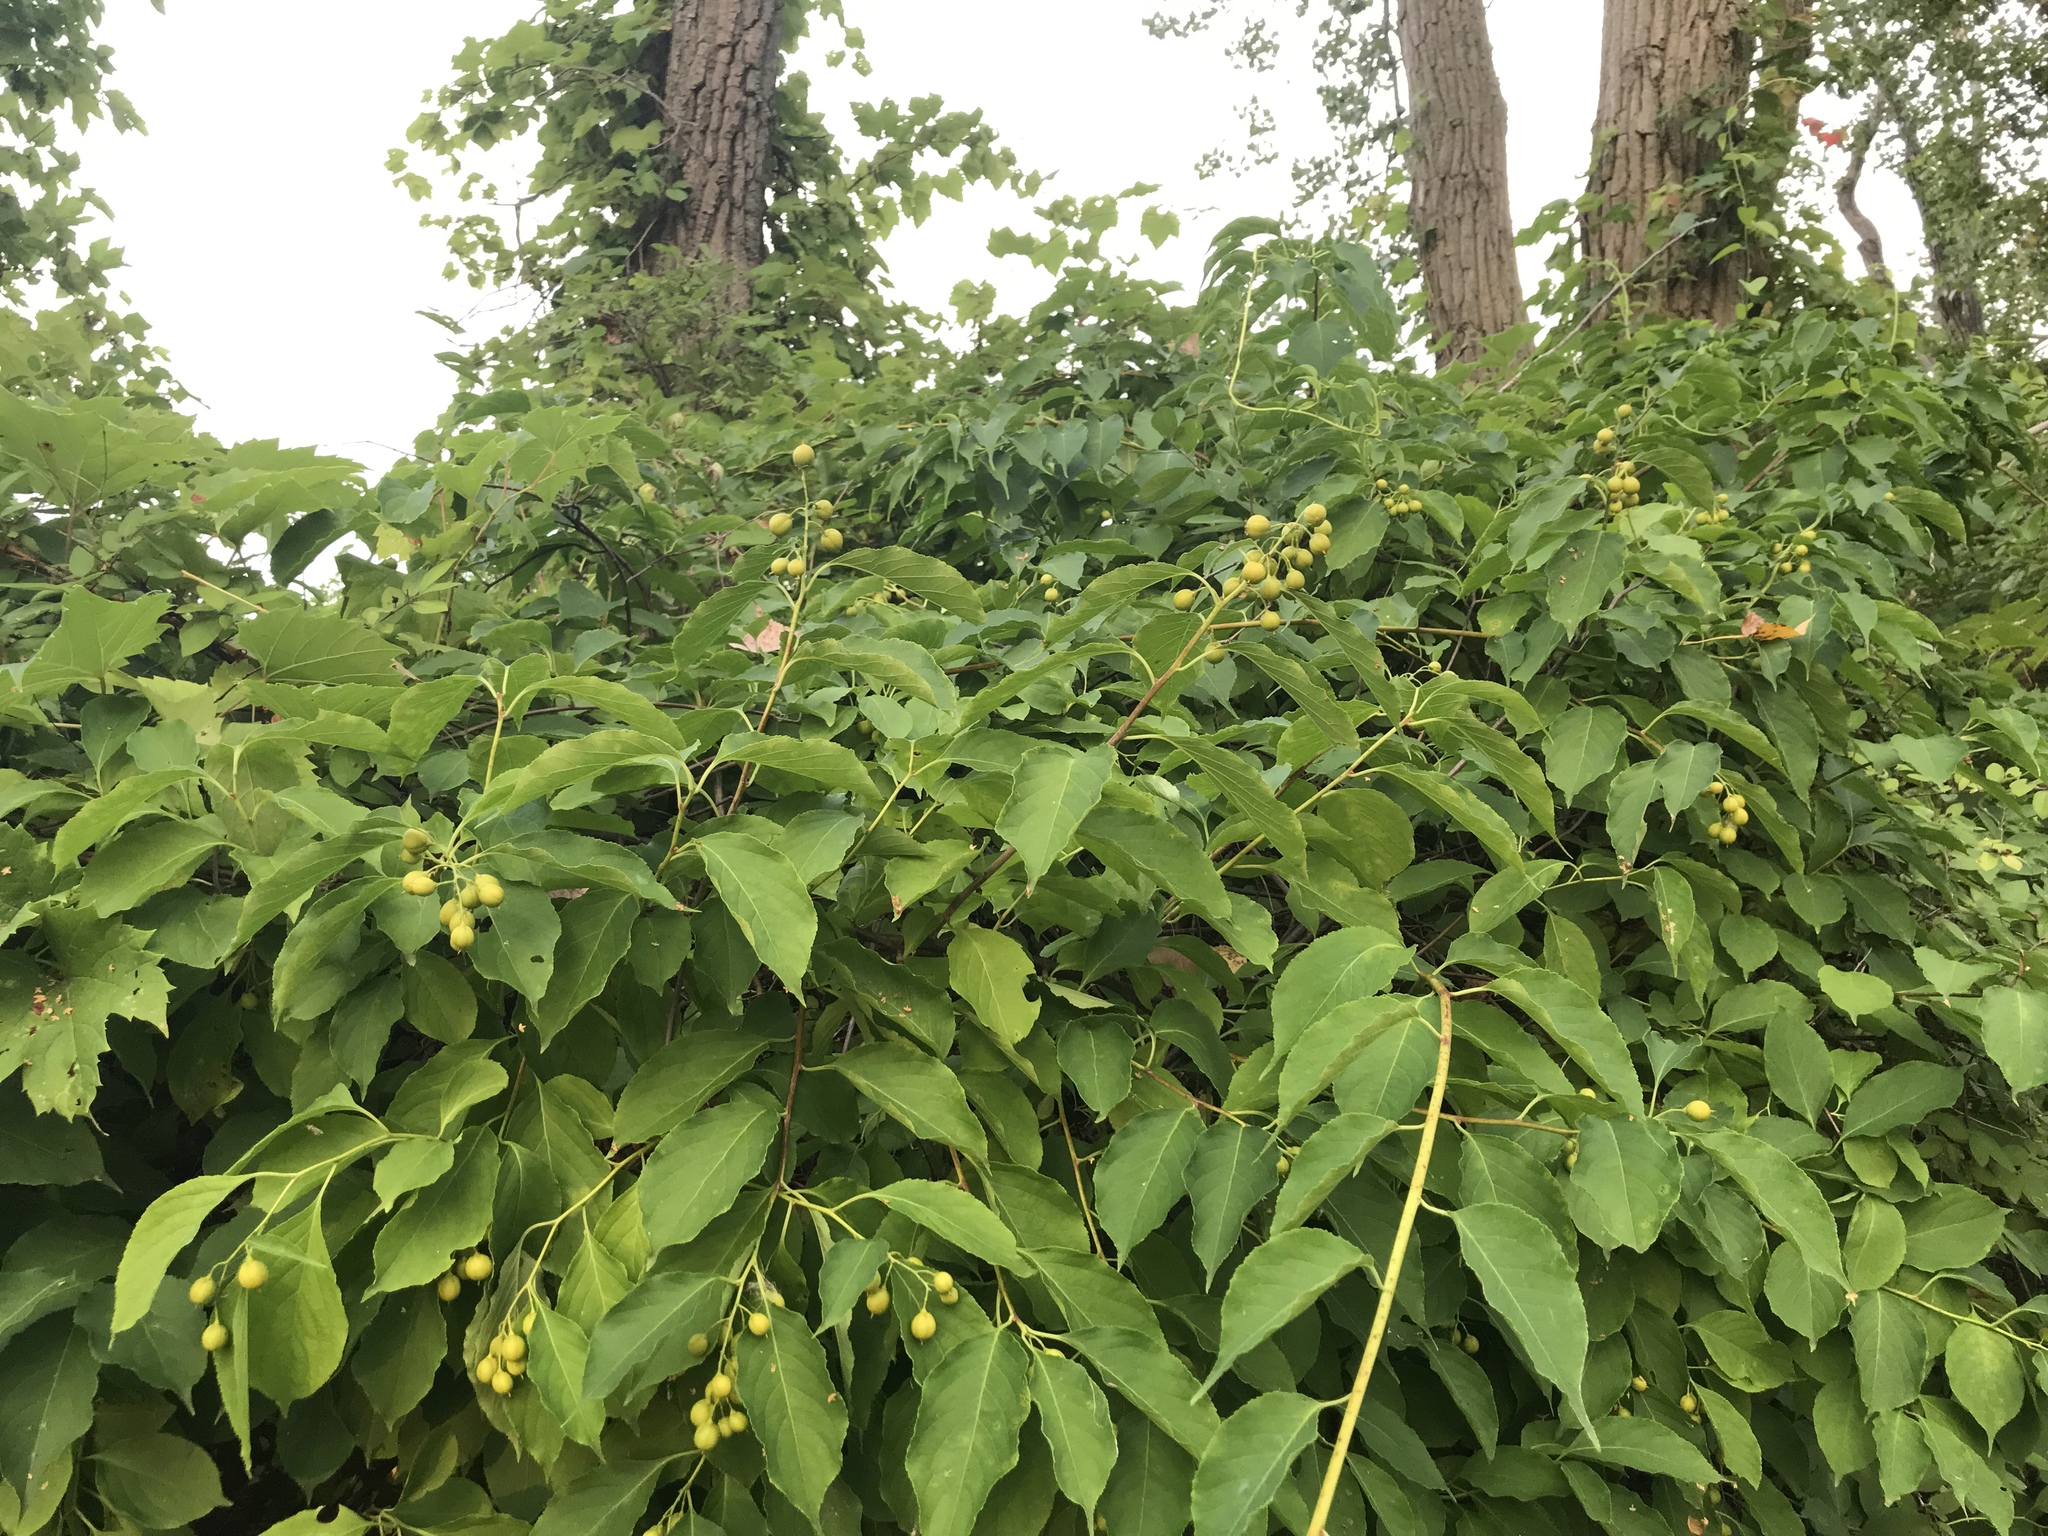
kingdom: Plantae
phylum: Tracheophyta
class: Magnoliopsida
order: Celastrales
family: Celastraceae
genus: Celastrus
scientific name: Celastrus scandens
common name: American bittersweet
